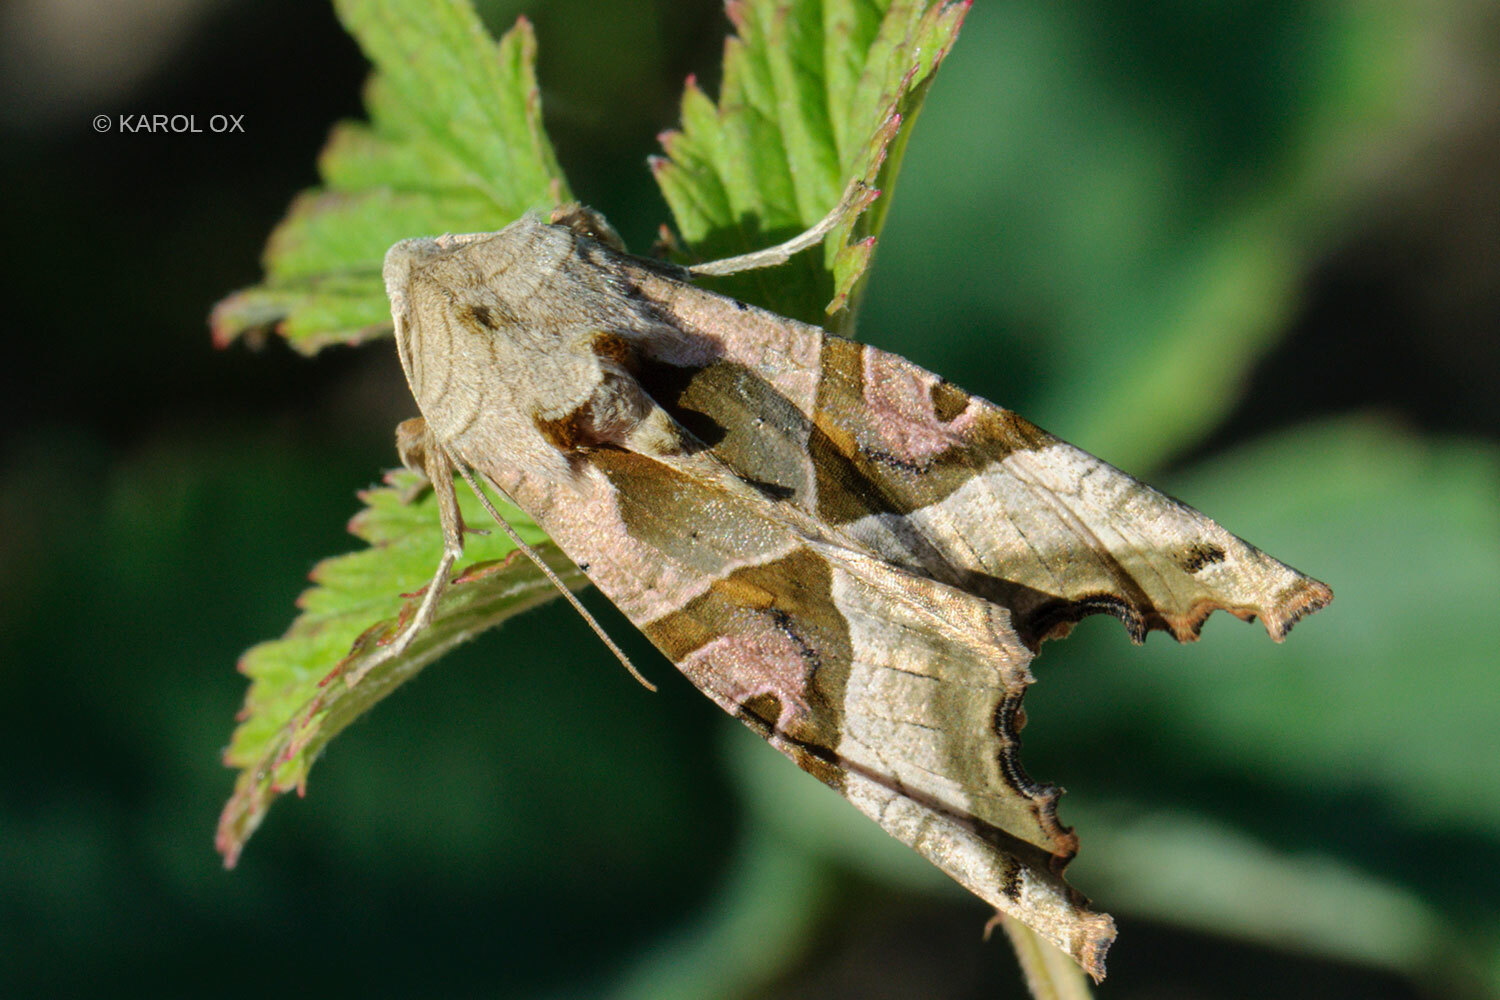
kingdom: Animalia
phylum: Arthropoda
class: Insecta
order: Lepidoptera
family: Noctuidae
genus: Phlogophora
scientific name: Phlogophora meticulosa
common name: Angle shades
